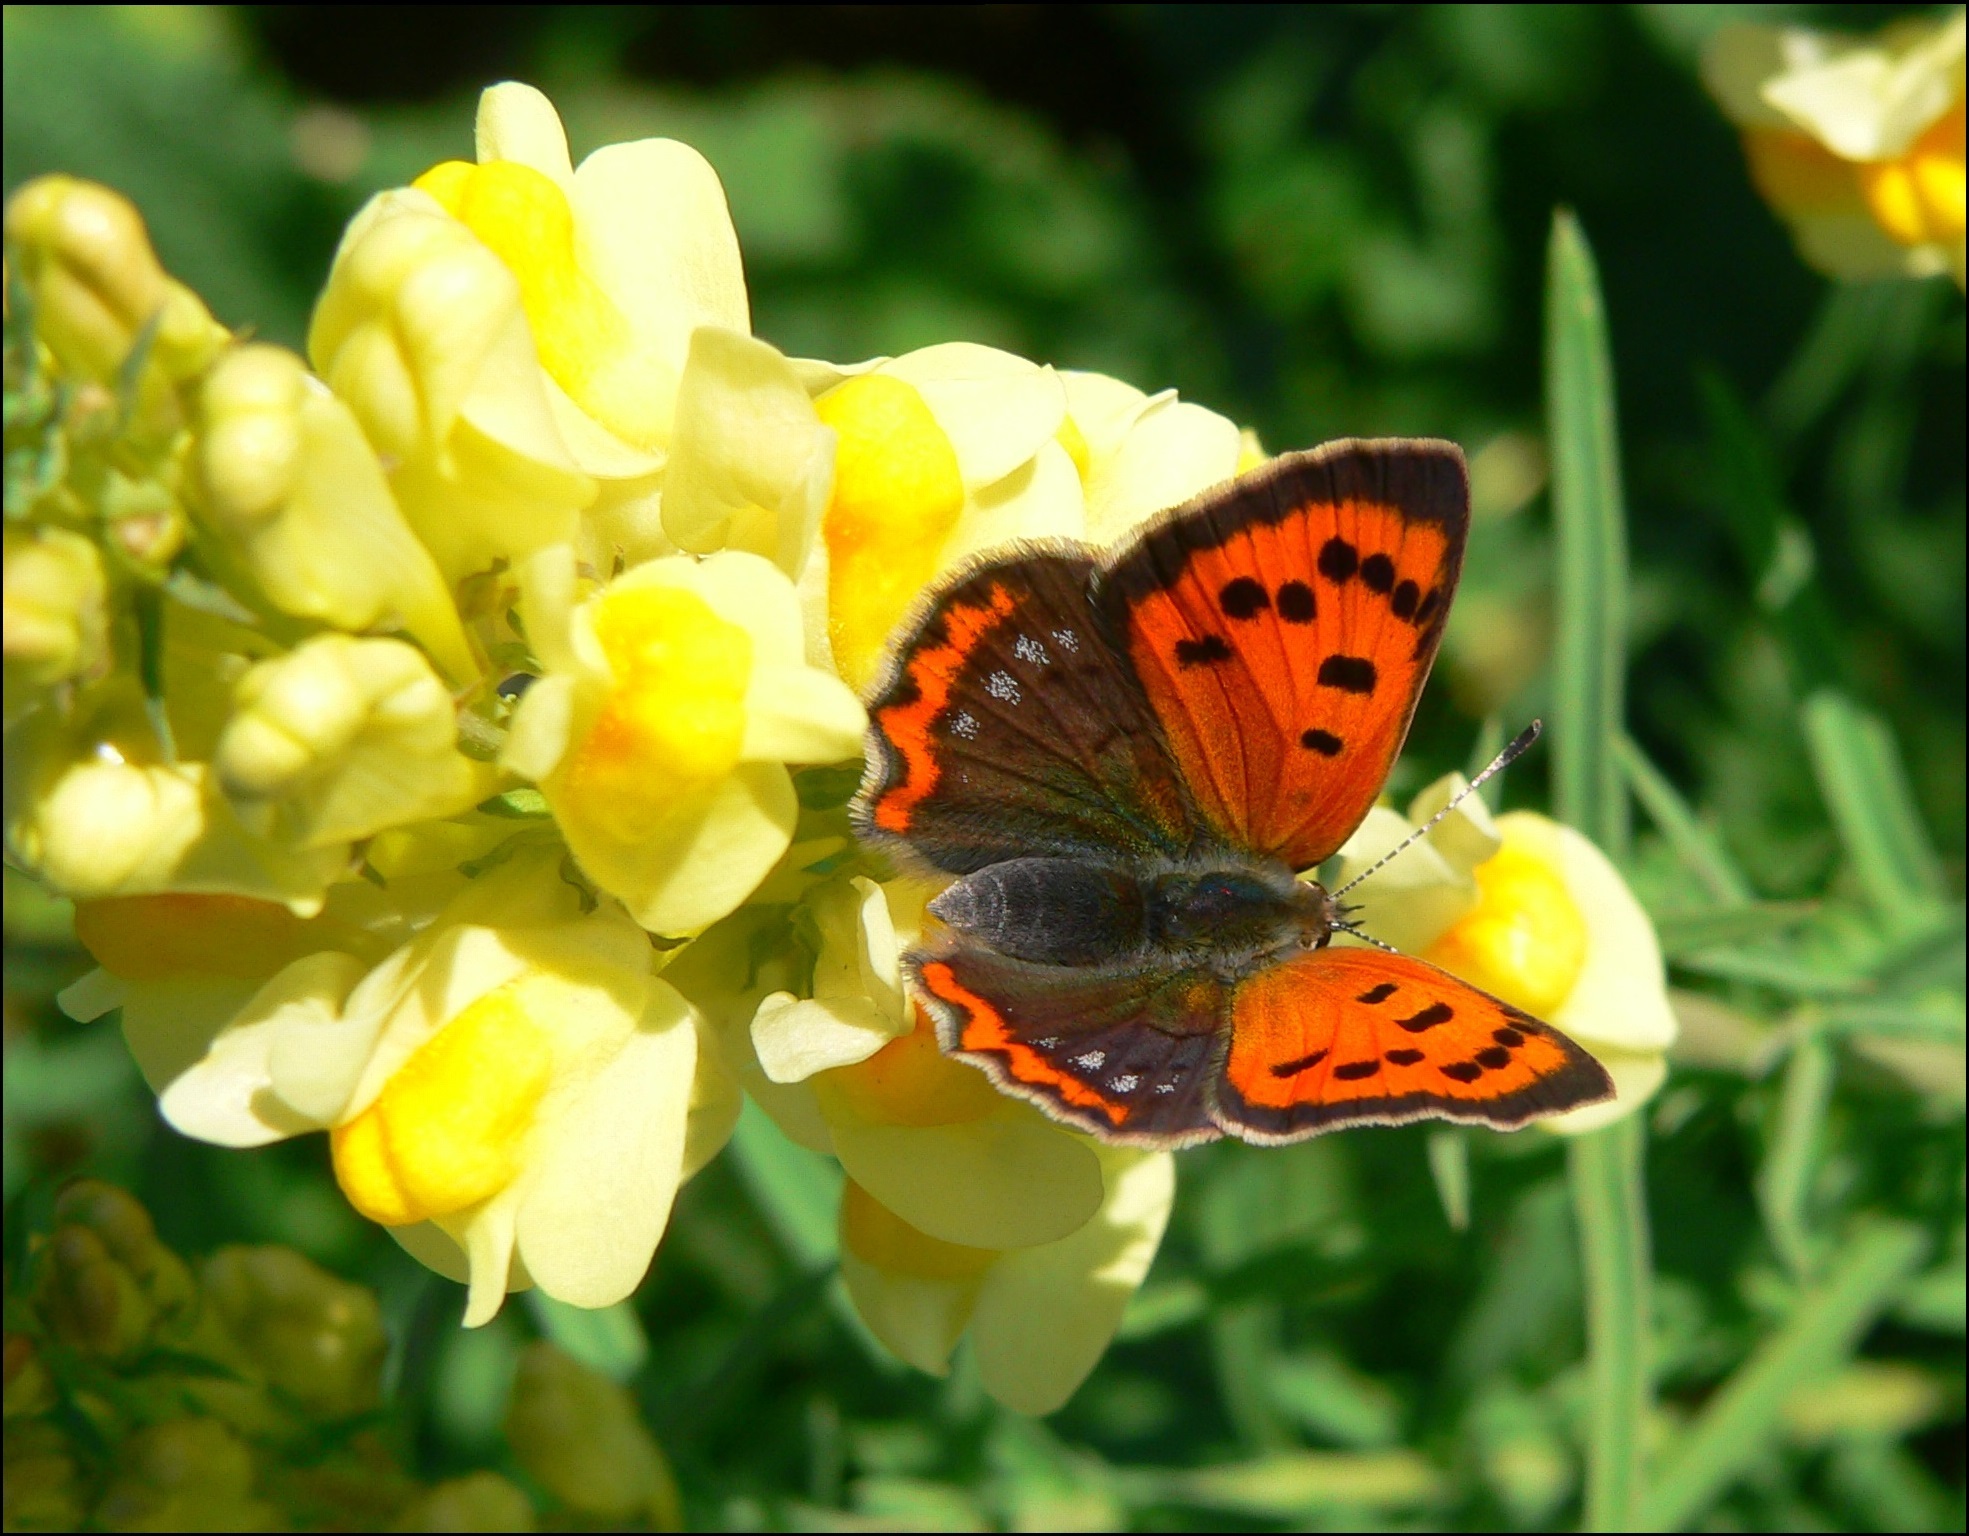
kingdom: Animalia
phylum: Arthropoda
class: Insecta
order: Lepidoptera
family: Lycaenidae
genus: Lycaena
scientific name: Lycaena phlaeas
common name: Small copper
